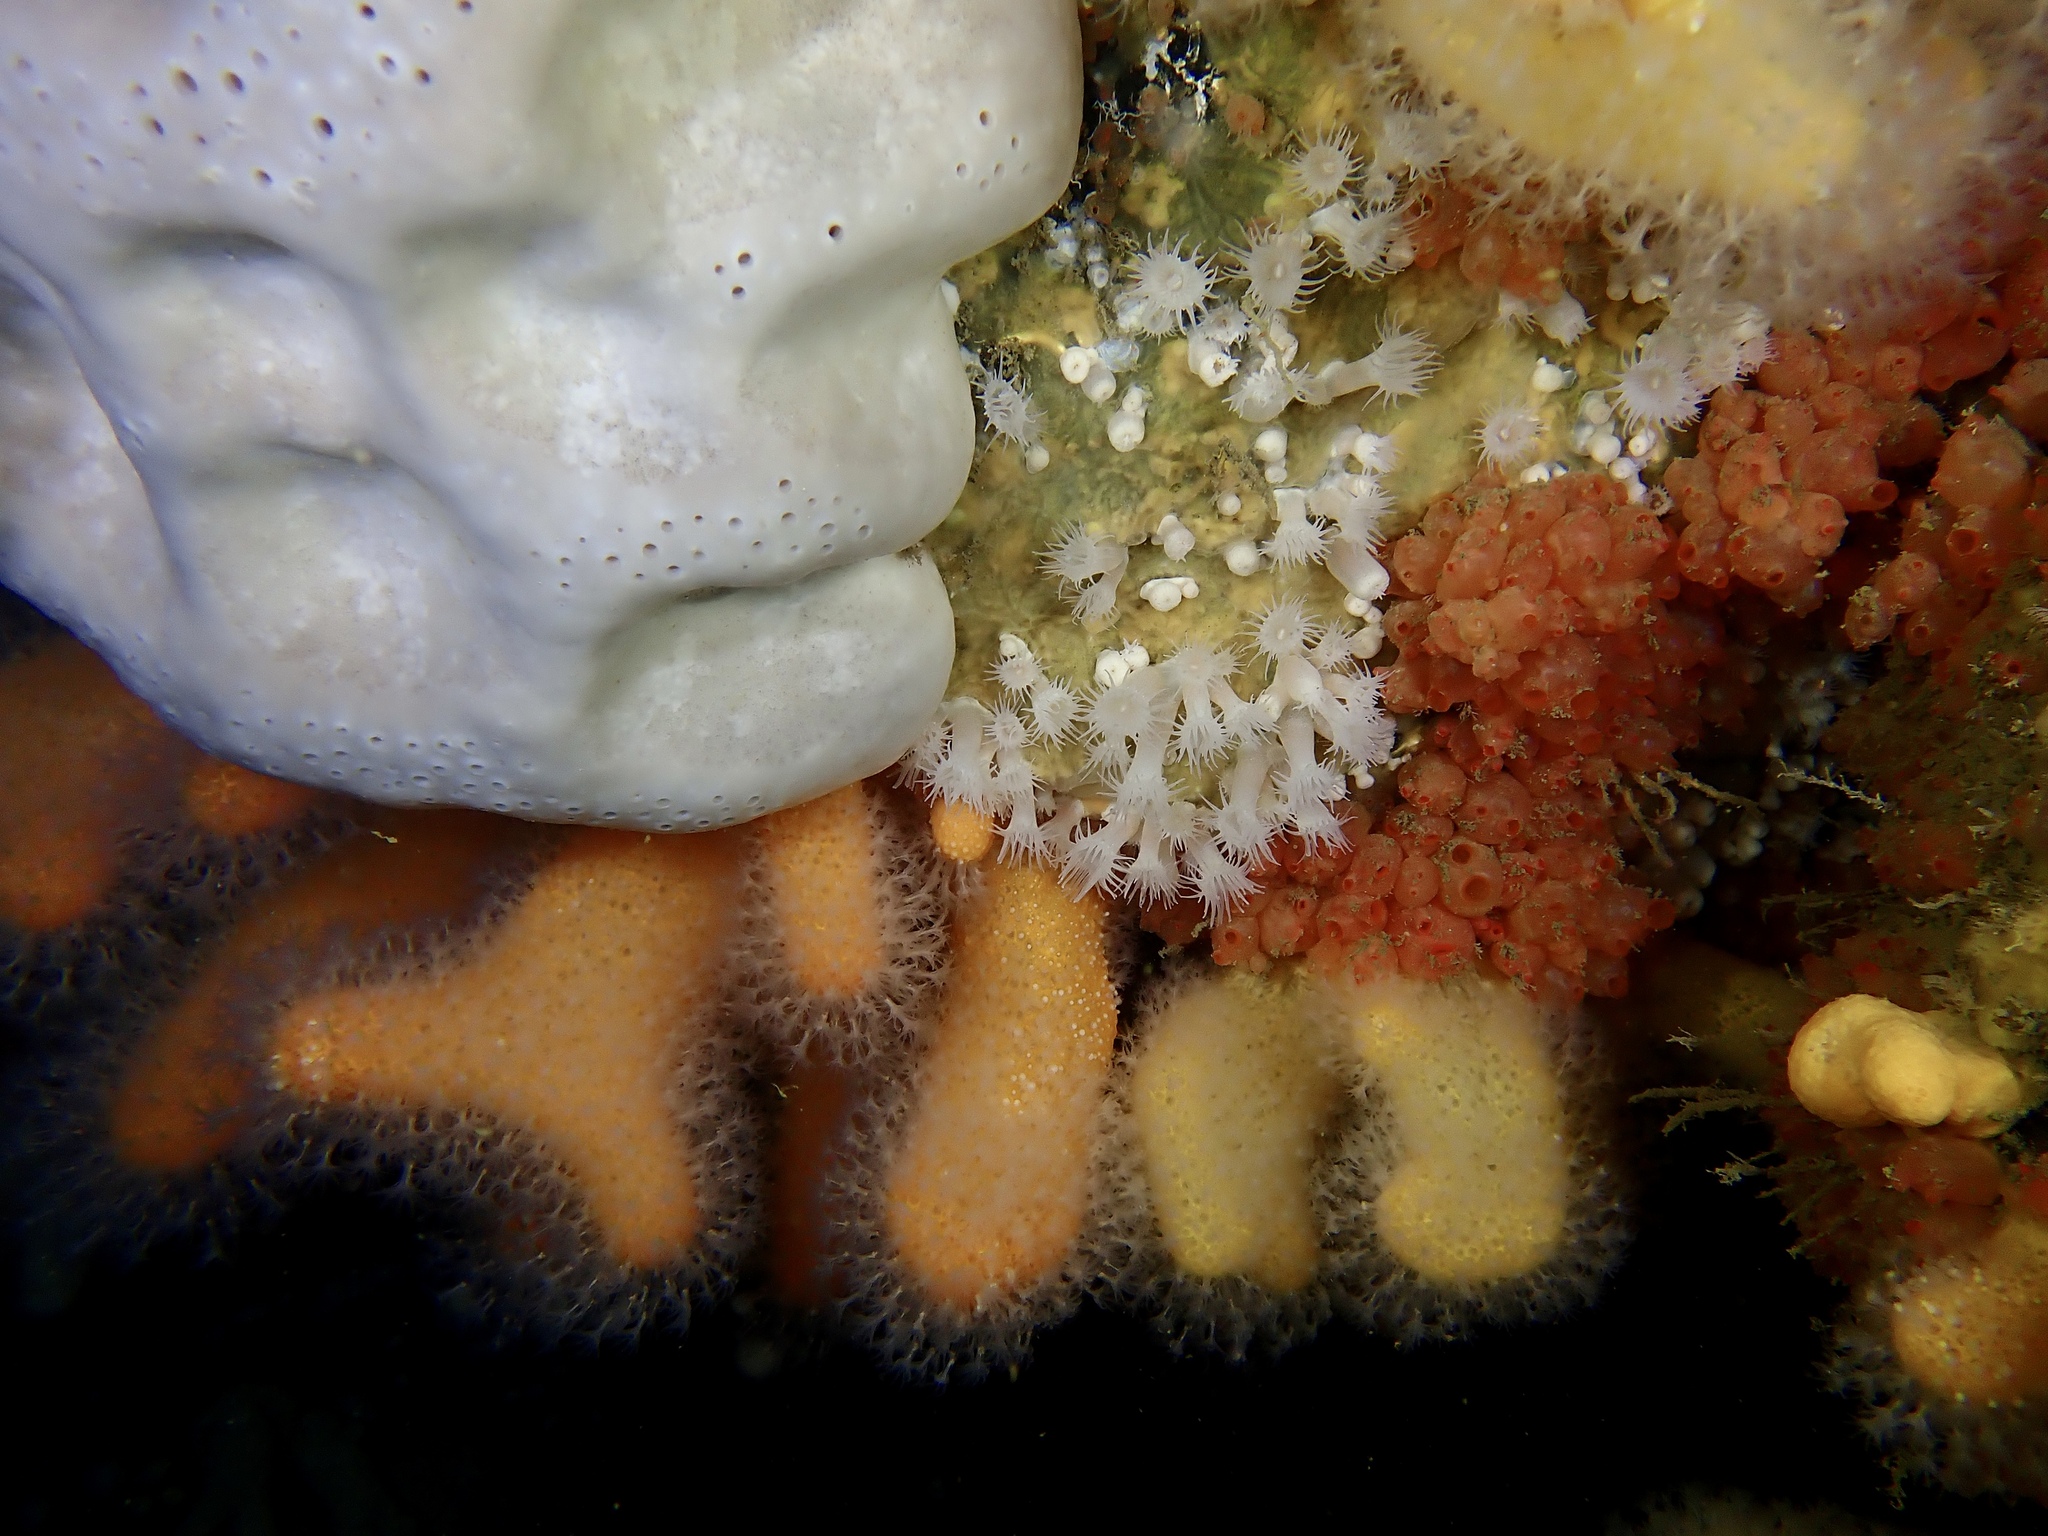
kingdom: Animalia
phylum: Cnidaria
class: Anthozoa
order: Zoantharia
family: Parazoanthidae
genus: Parazoanthus
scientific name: Parazoanthus anguicomus
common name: White cluster anemone
